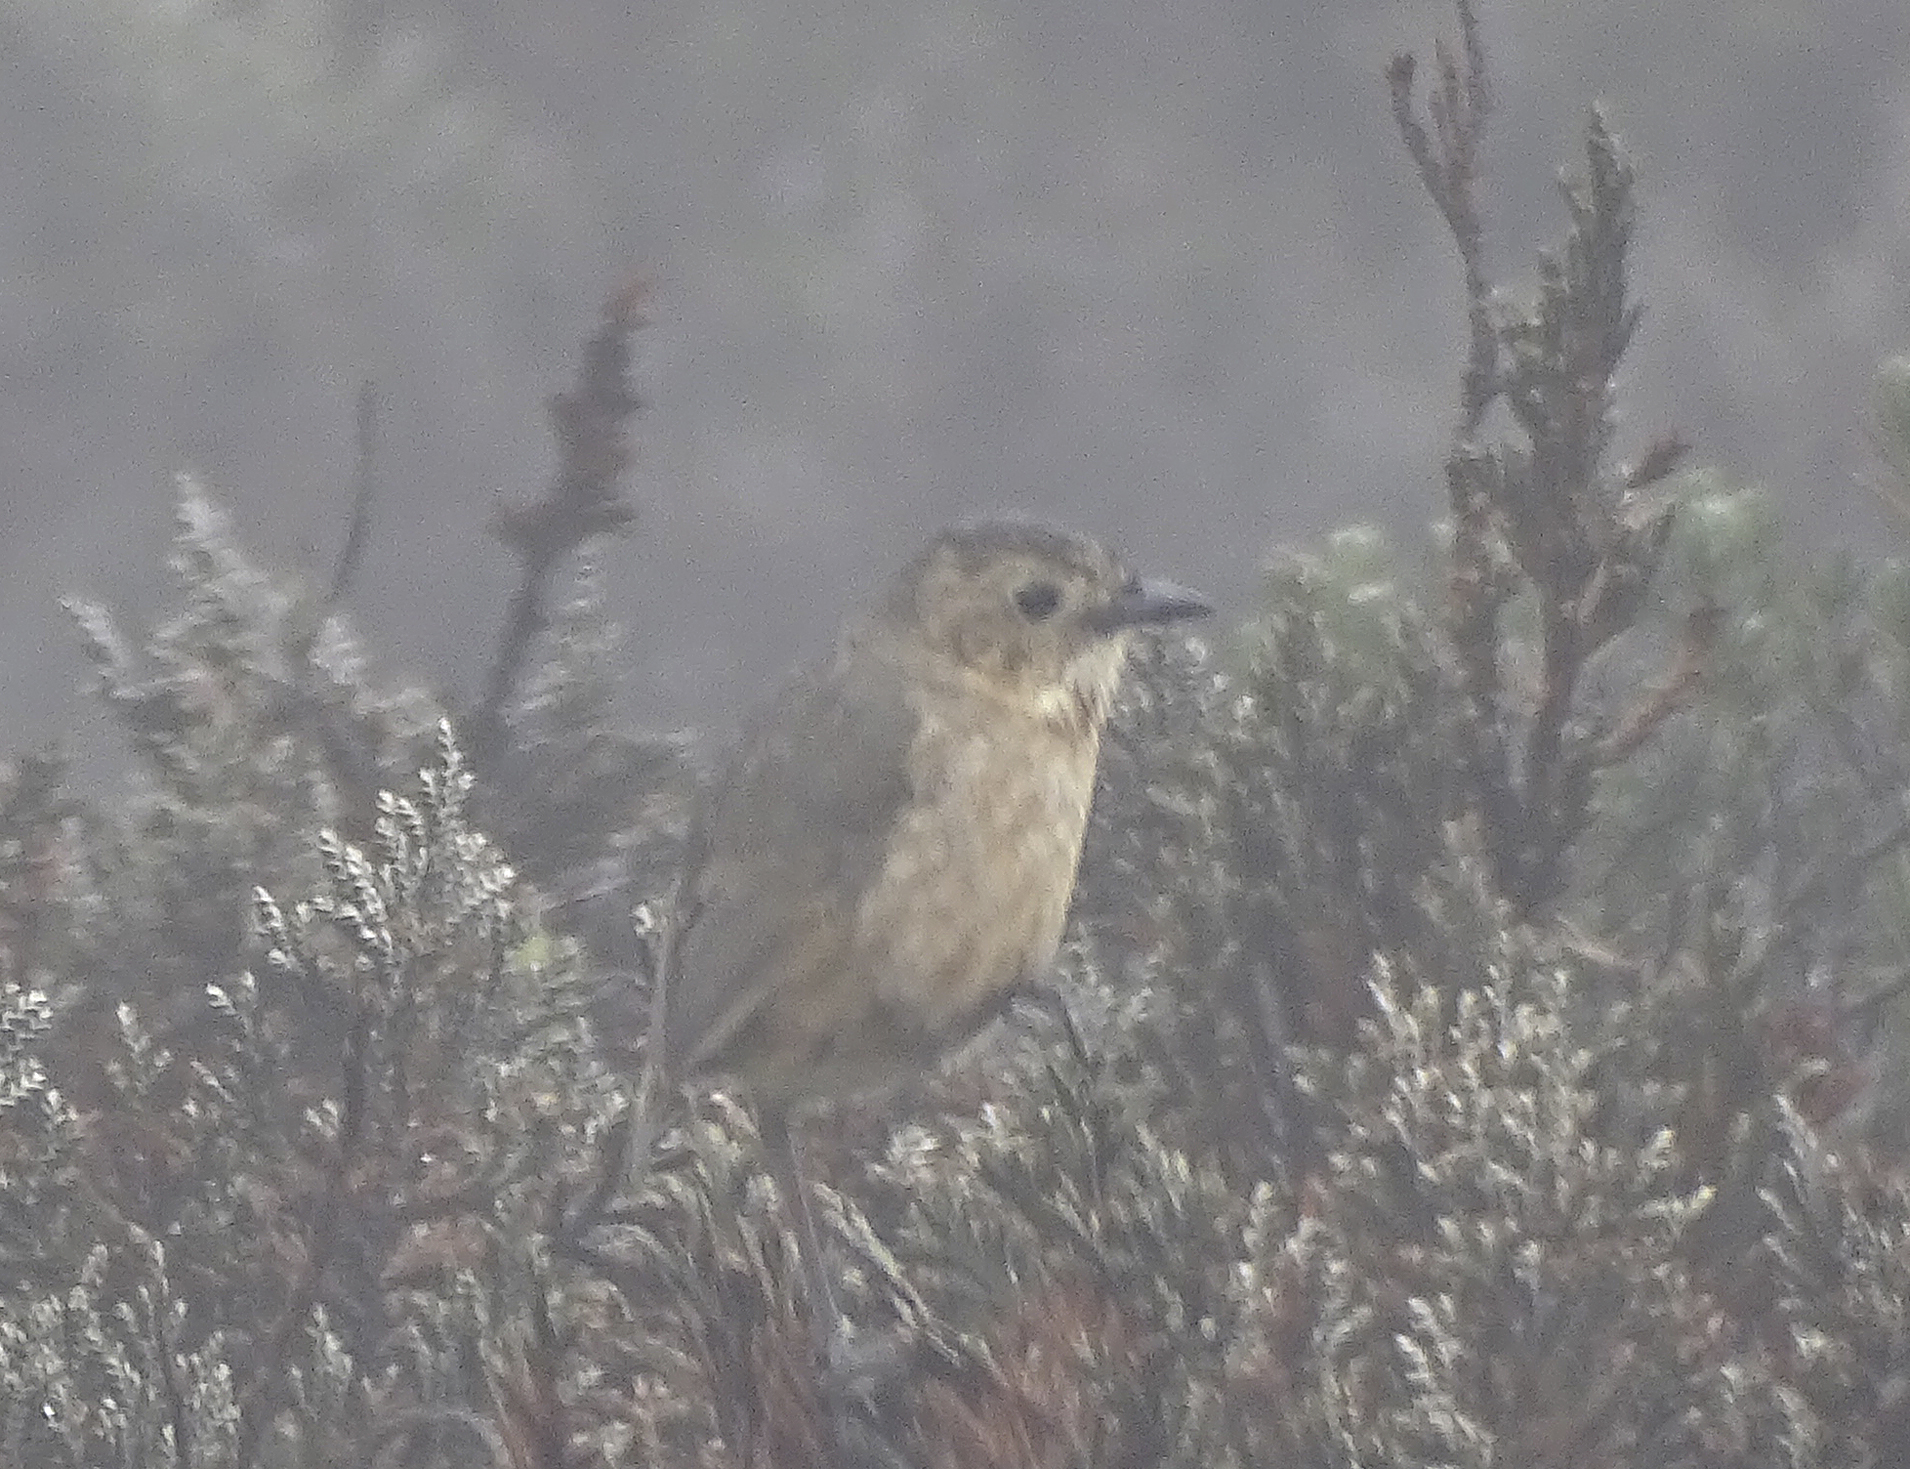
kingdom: Animalia
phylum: Chordata
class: Aves
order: Passeriformes
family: Grallariidae
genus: Grallaria
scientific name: Grallaria quitensis
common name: Tawny antpitta
